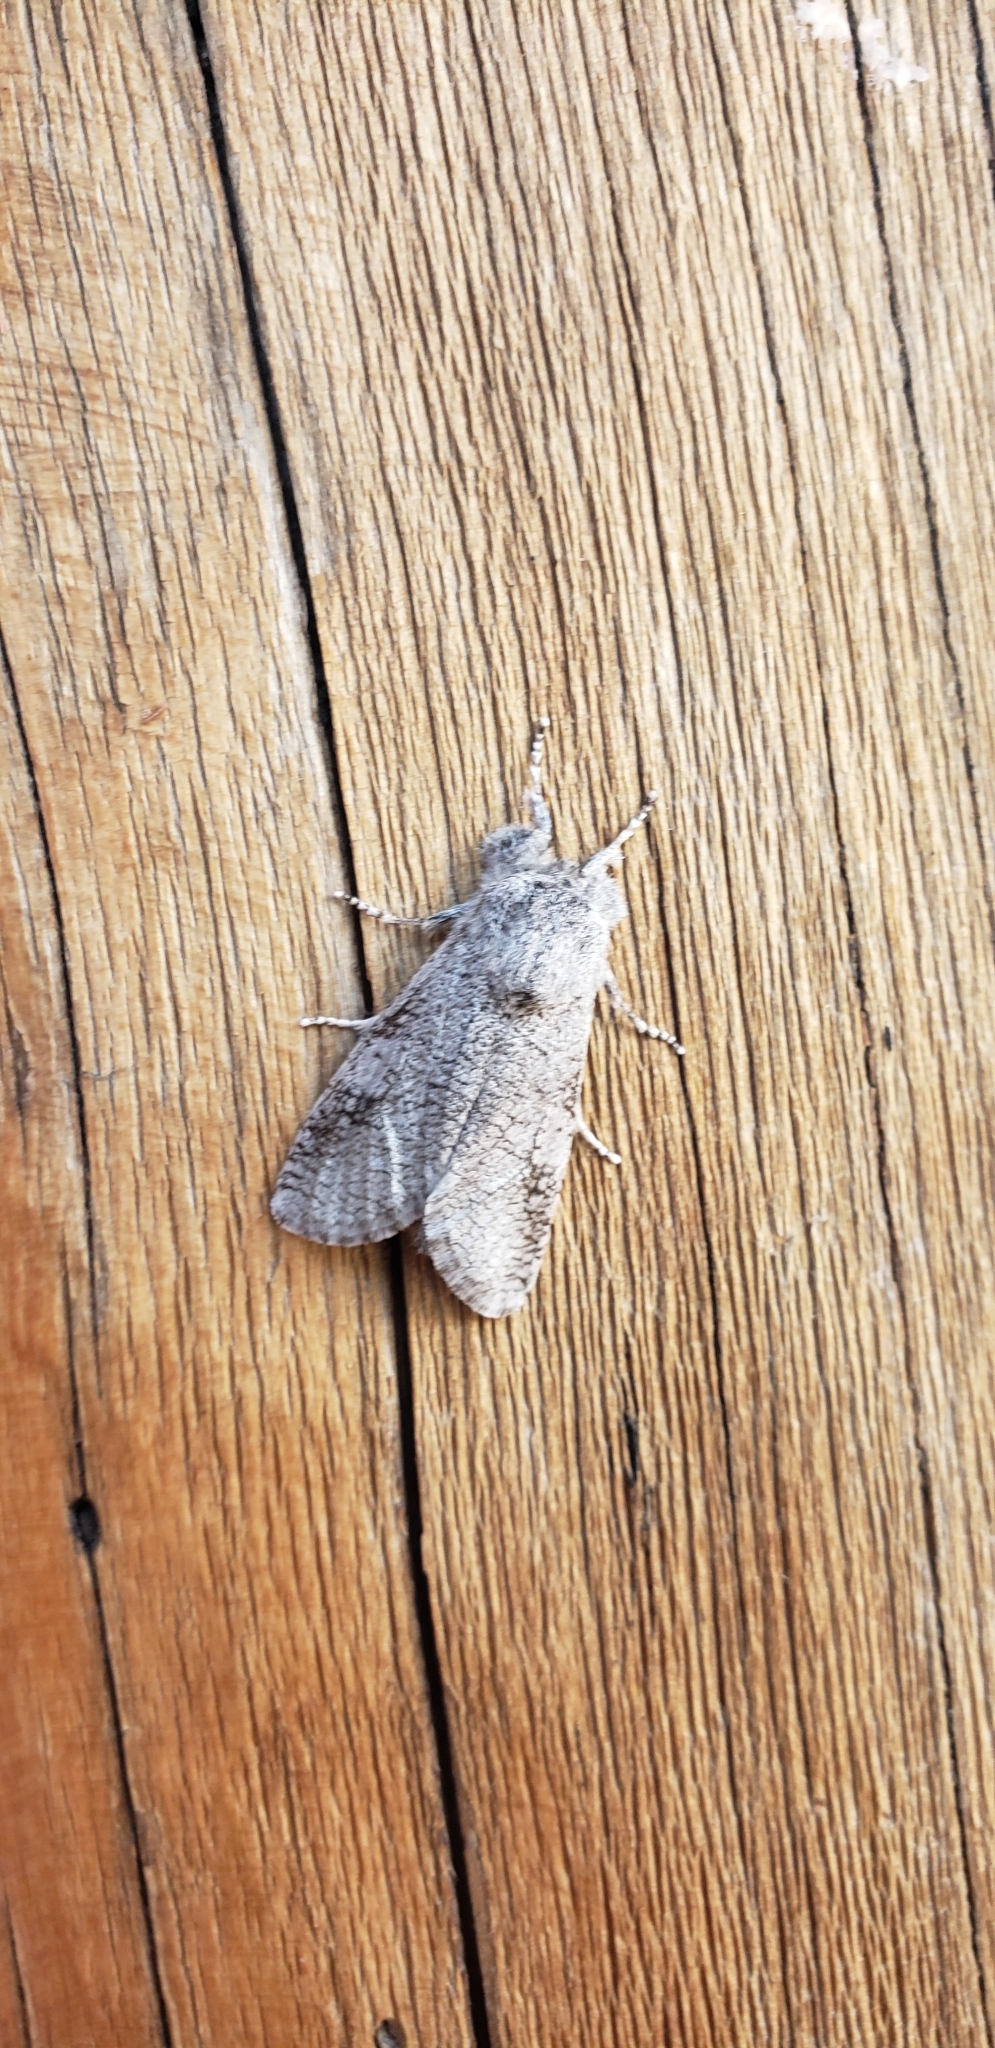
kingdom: Animalia
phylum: Arthropoda
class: Insecta
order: Lepidoptera
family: Cossidae
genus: Rhizocossus
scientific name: Rhizocossus munroei
